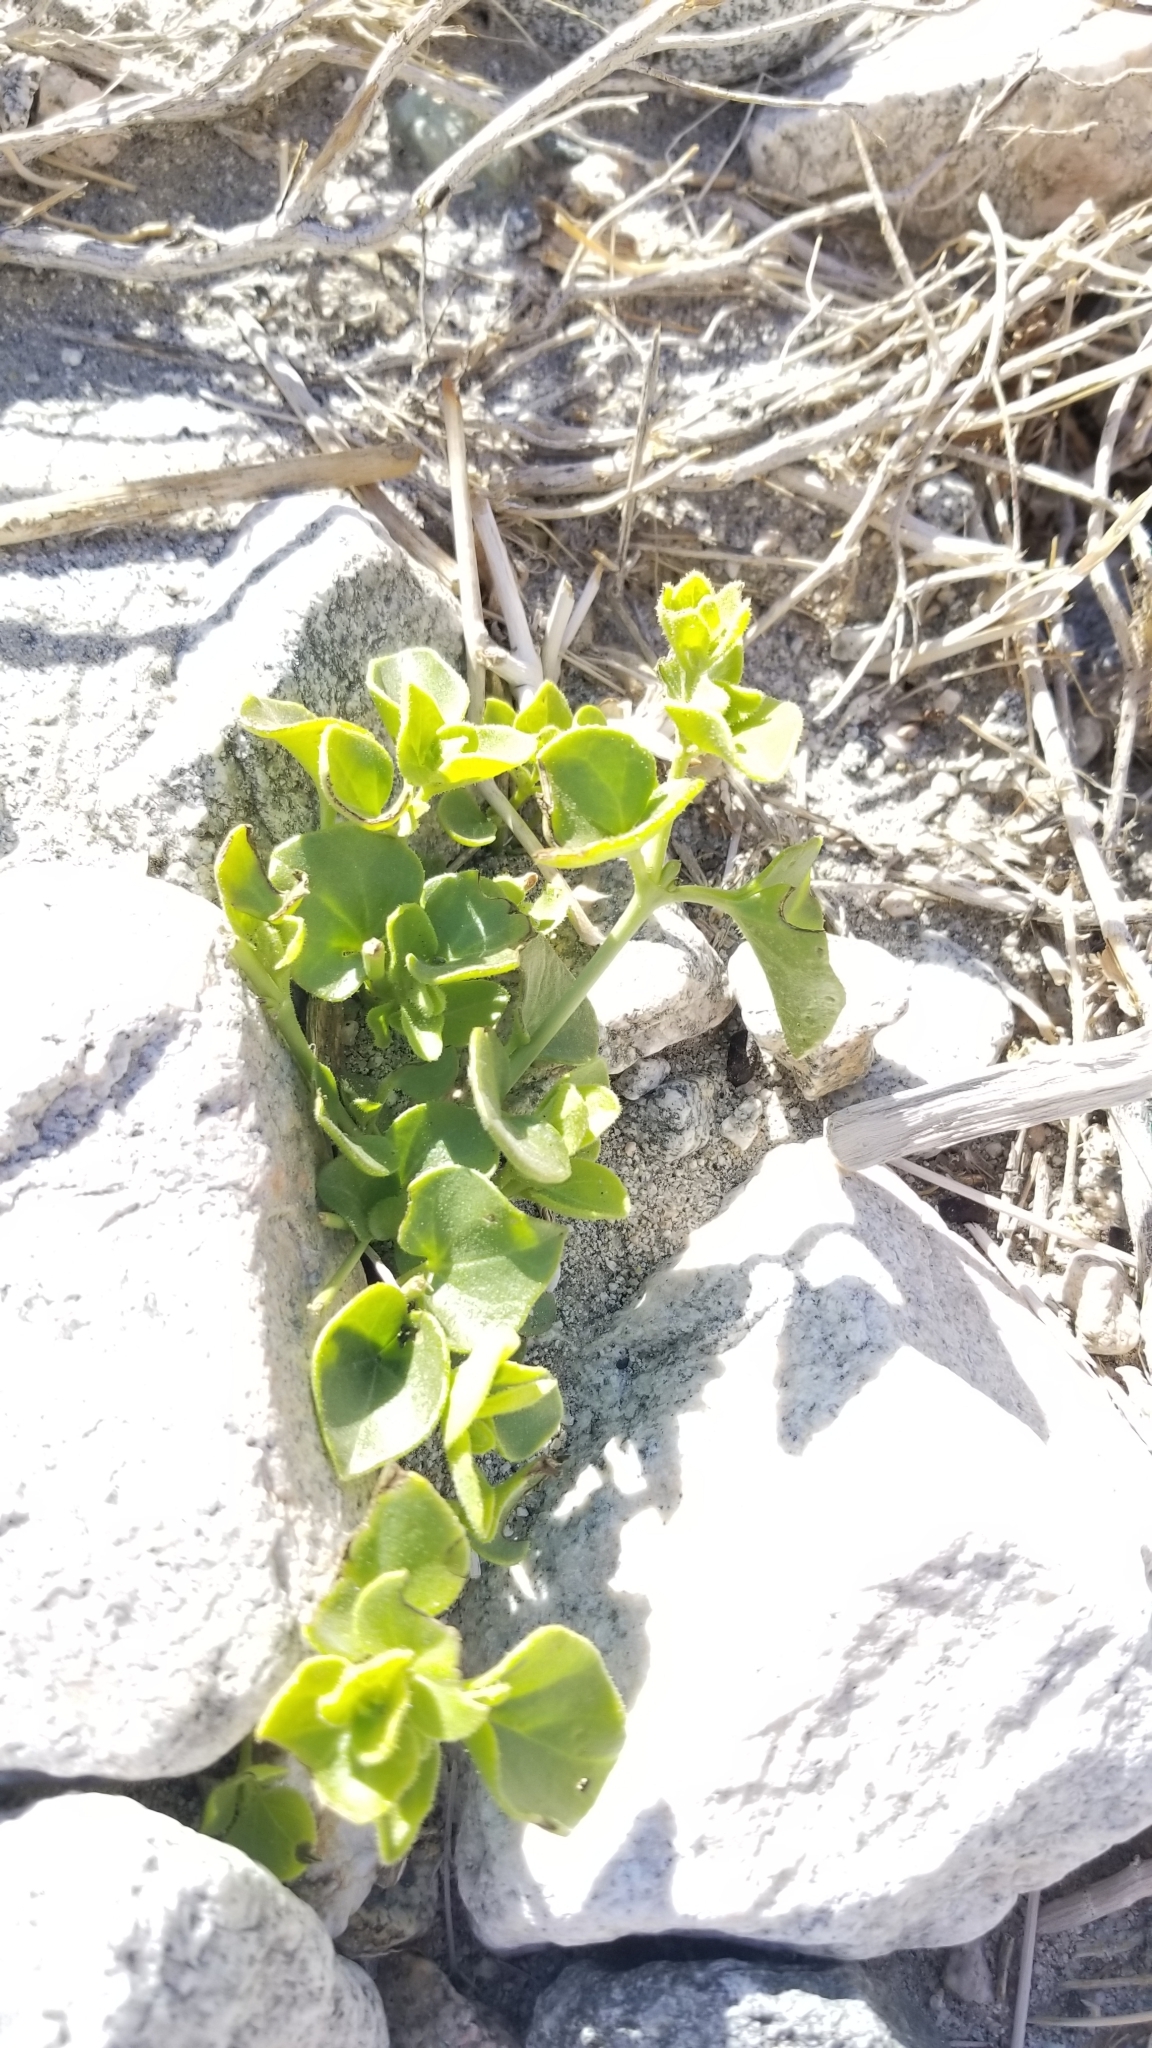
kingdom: Plantae
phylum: Tracheophyta
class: Magnoliopsida
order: Caryophyllales
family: Nyctaginaceae
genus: Mirabilis
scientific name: Mirabilis laevis
